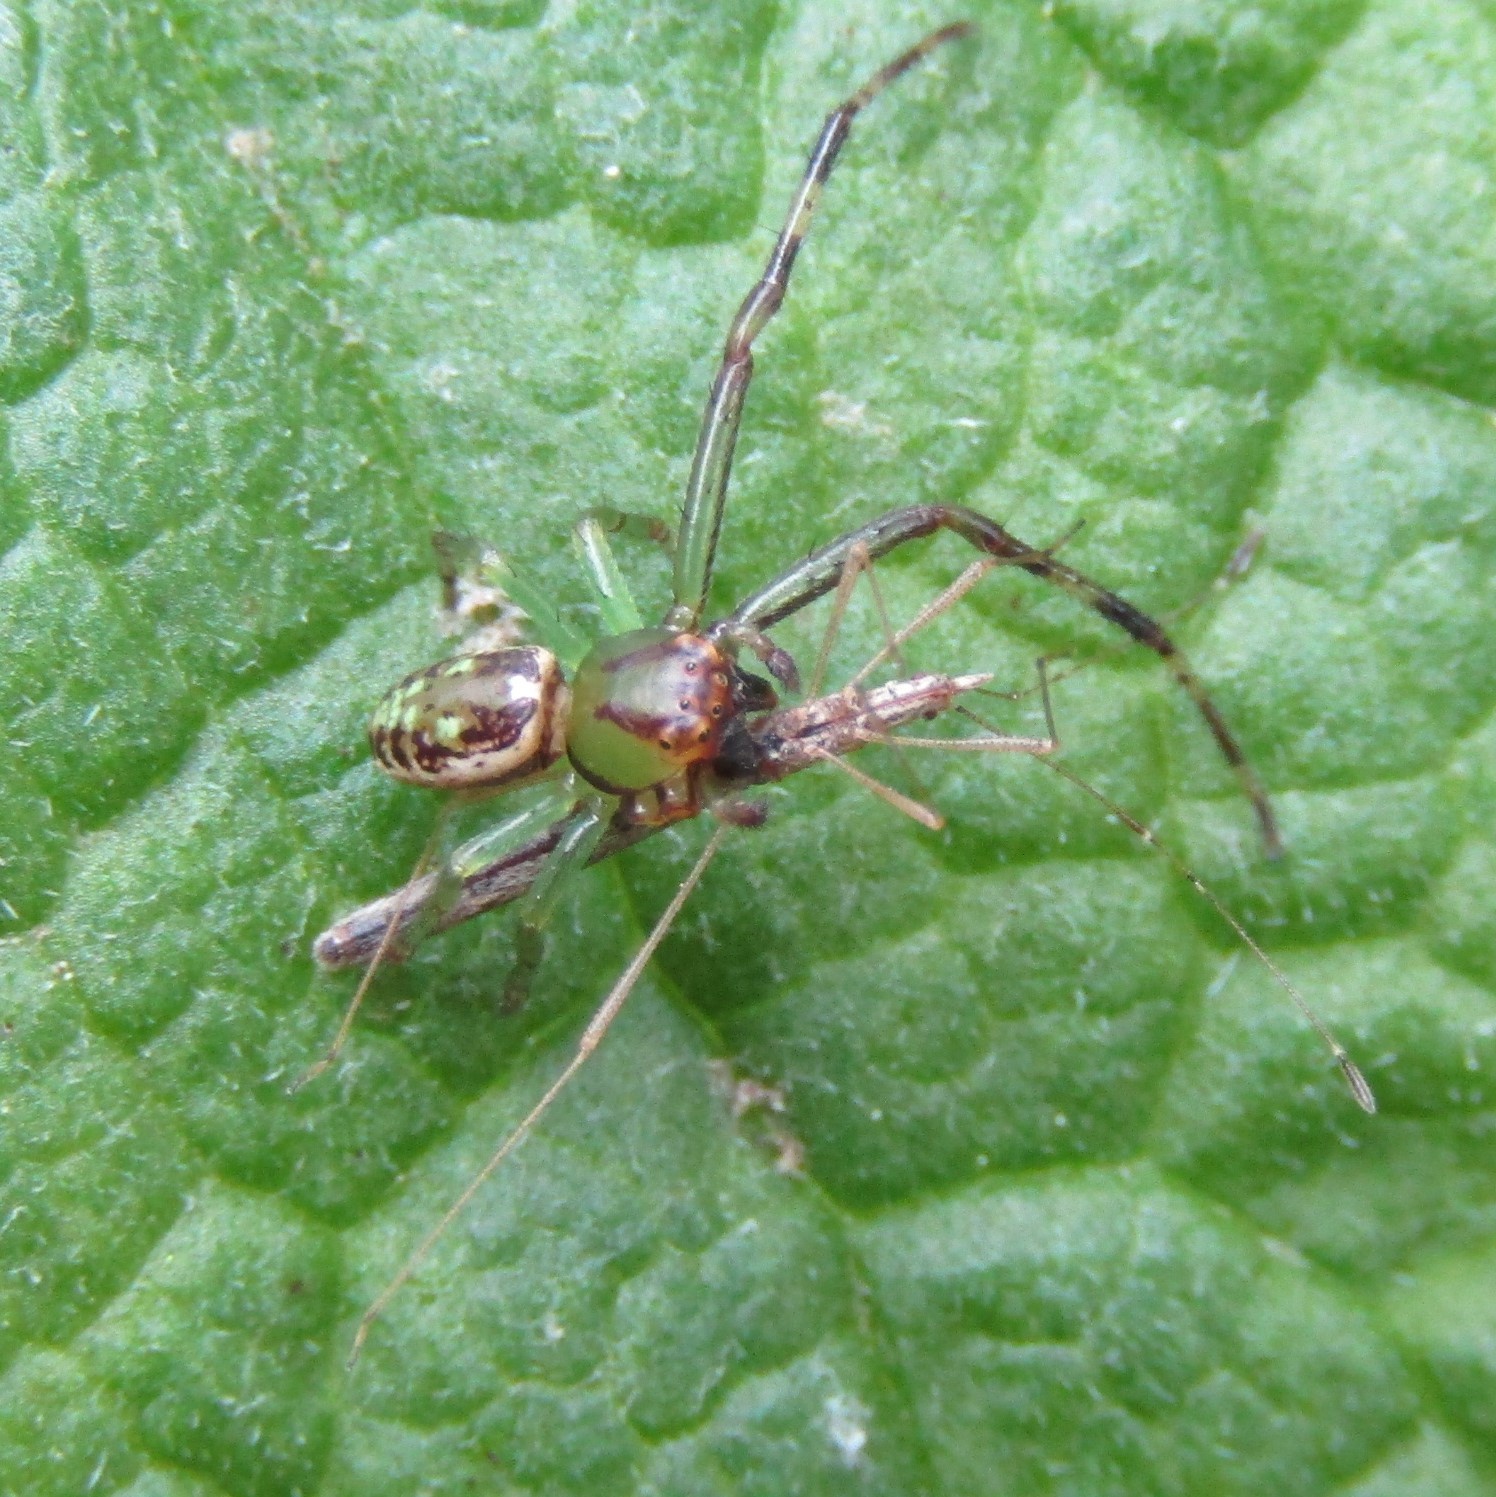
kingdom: Animalia
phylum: Arthropoda
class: Arachnida
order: Araneae
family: Thomisidae
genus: Diaea
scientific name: Diaea ambara
